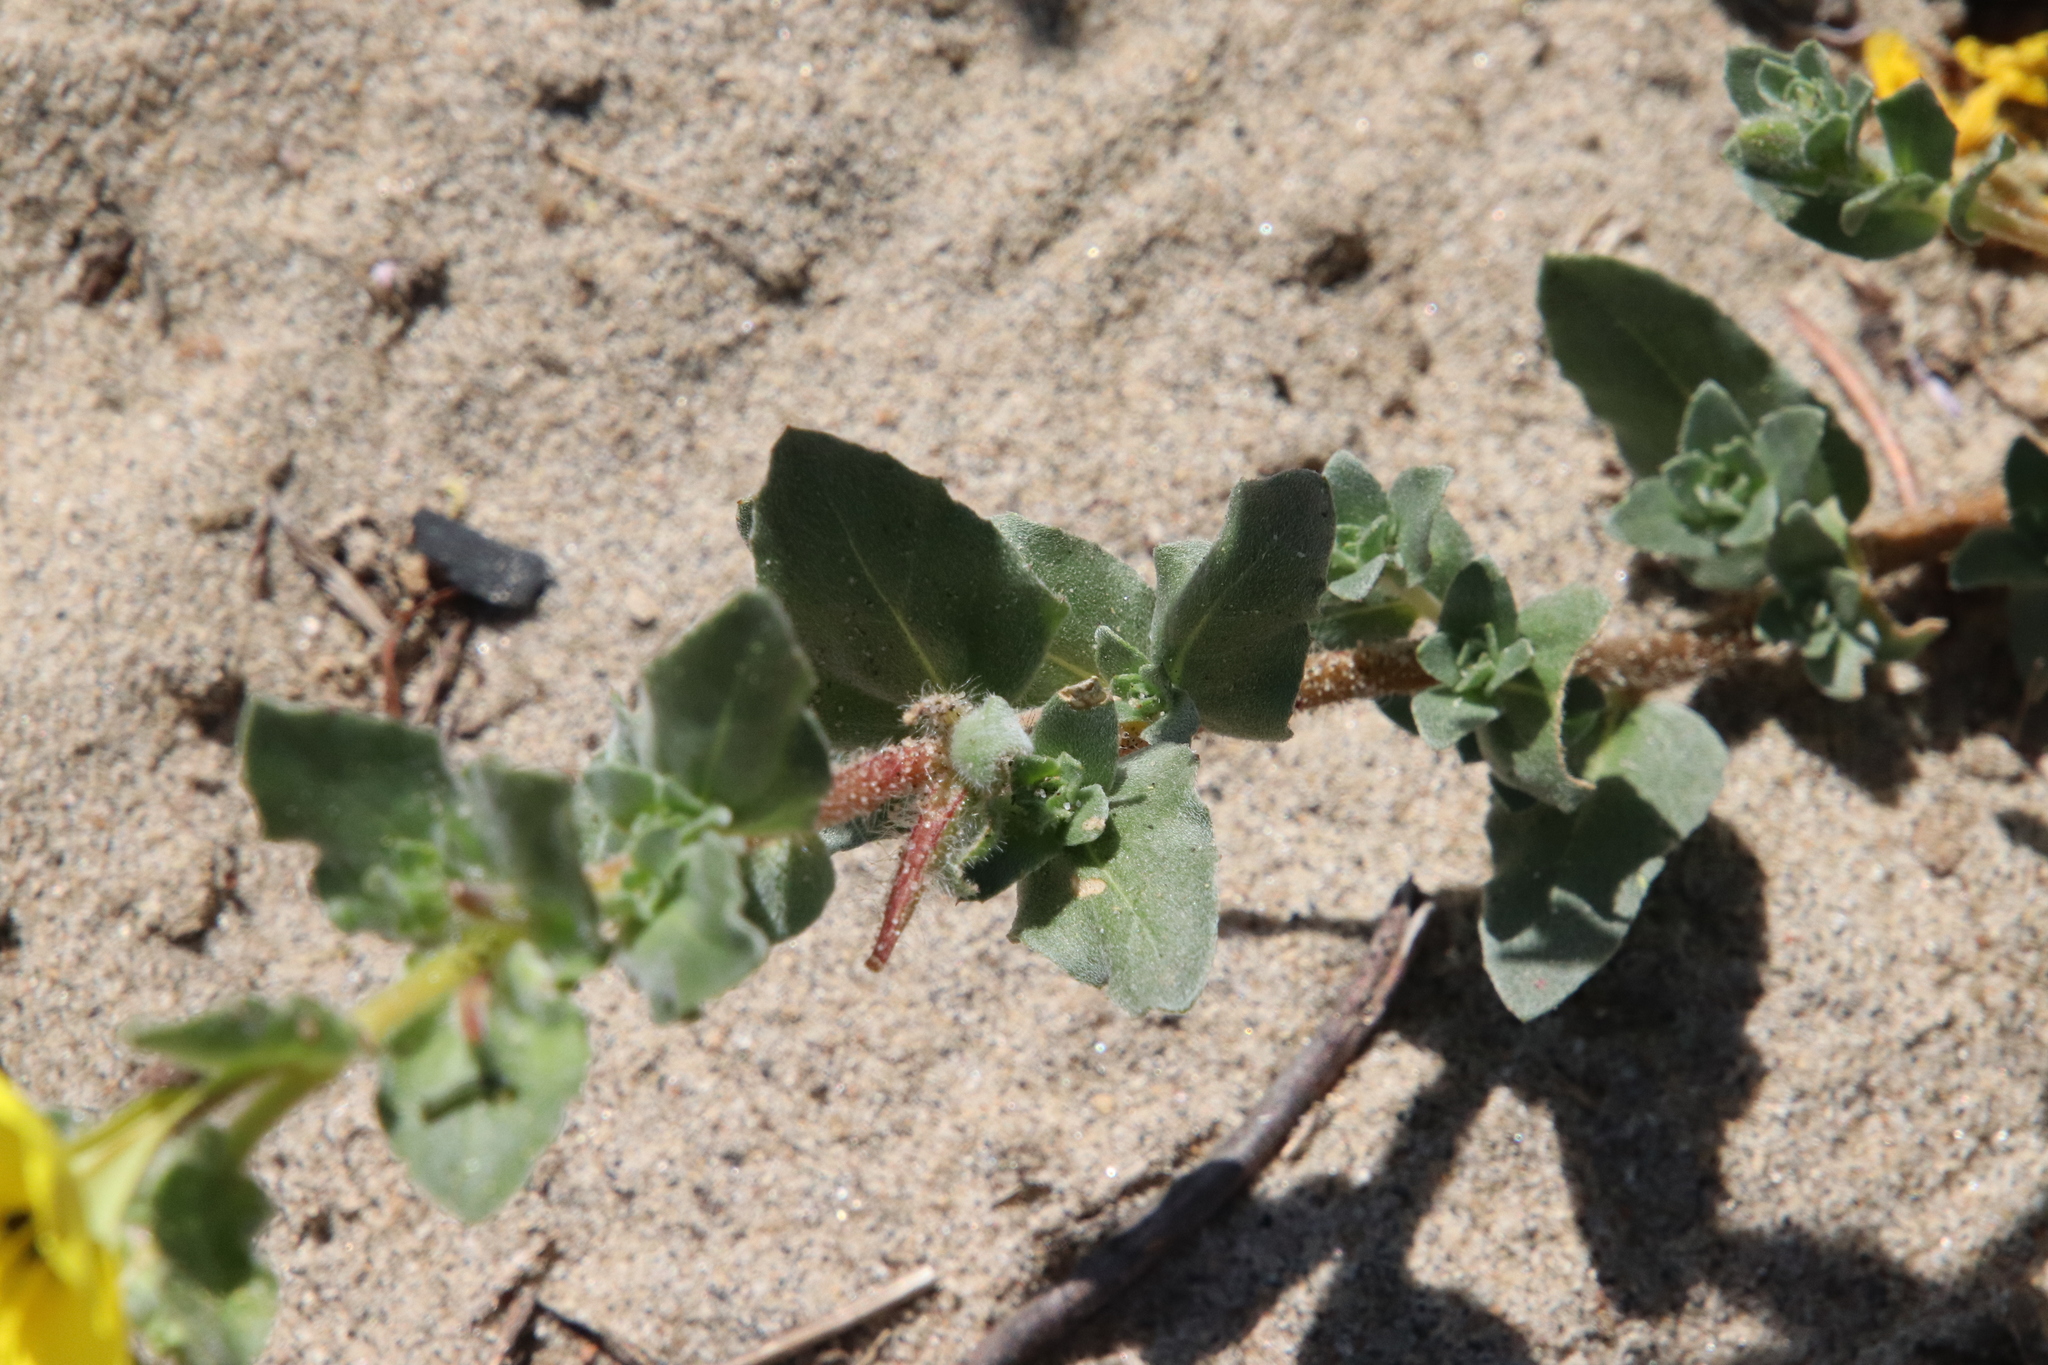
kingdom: Plantae
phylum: Tracheophyta
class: Magnoliopsida
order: Myrtales
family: Onagraceae
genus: Camissoniopsis
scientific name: Camissoniopsis cheiranthifolia
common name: Beach suncup
